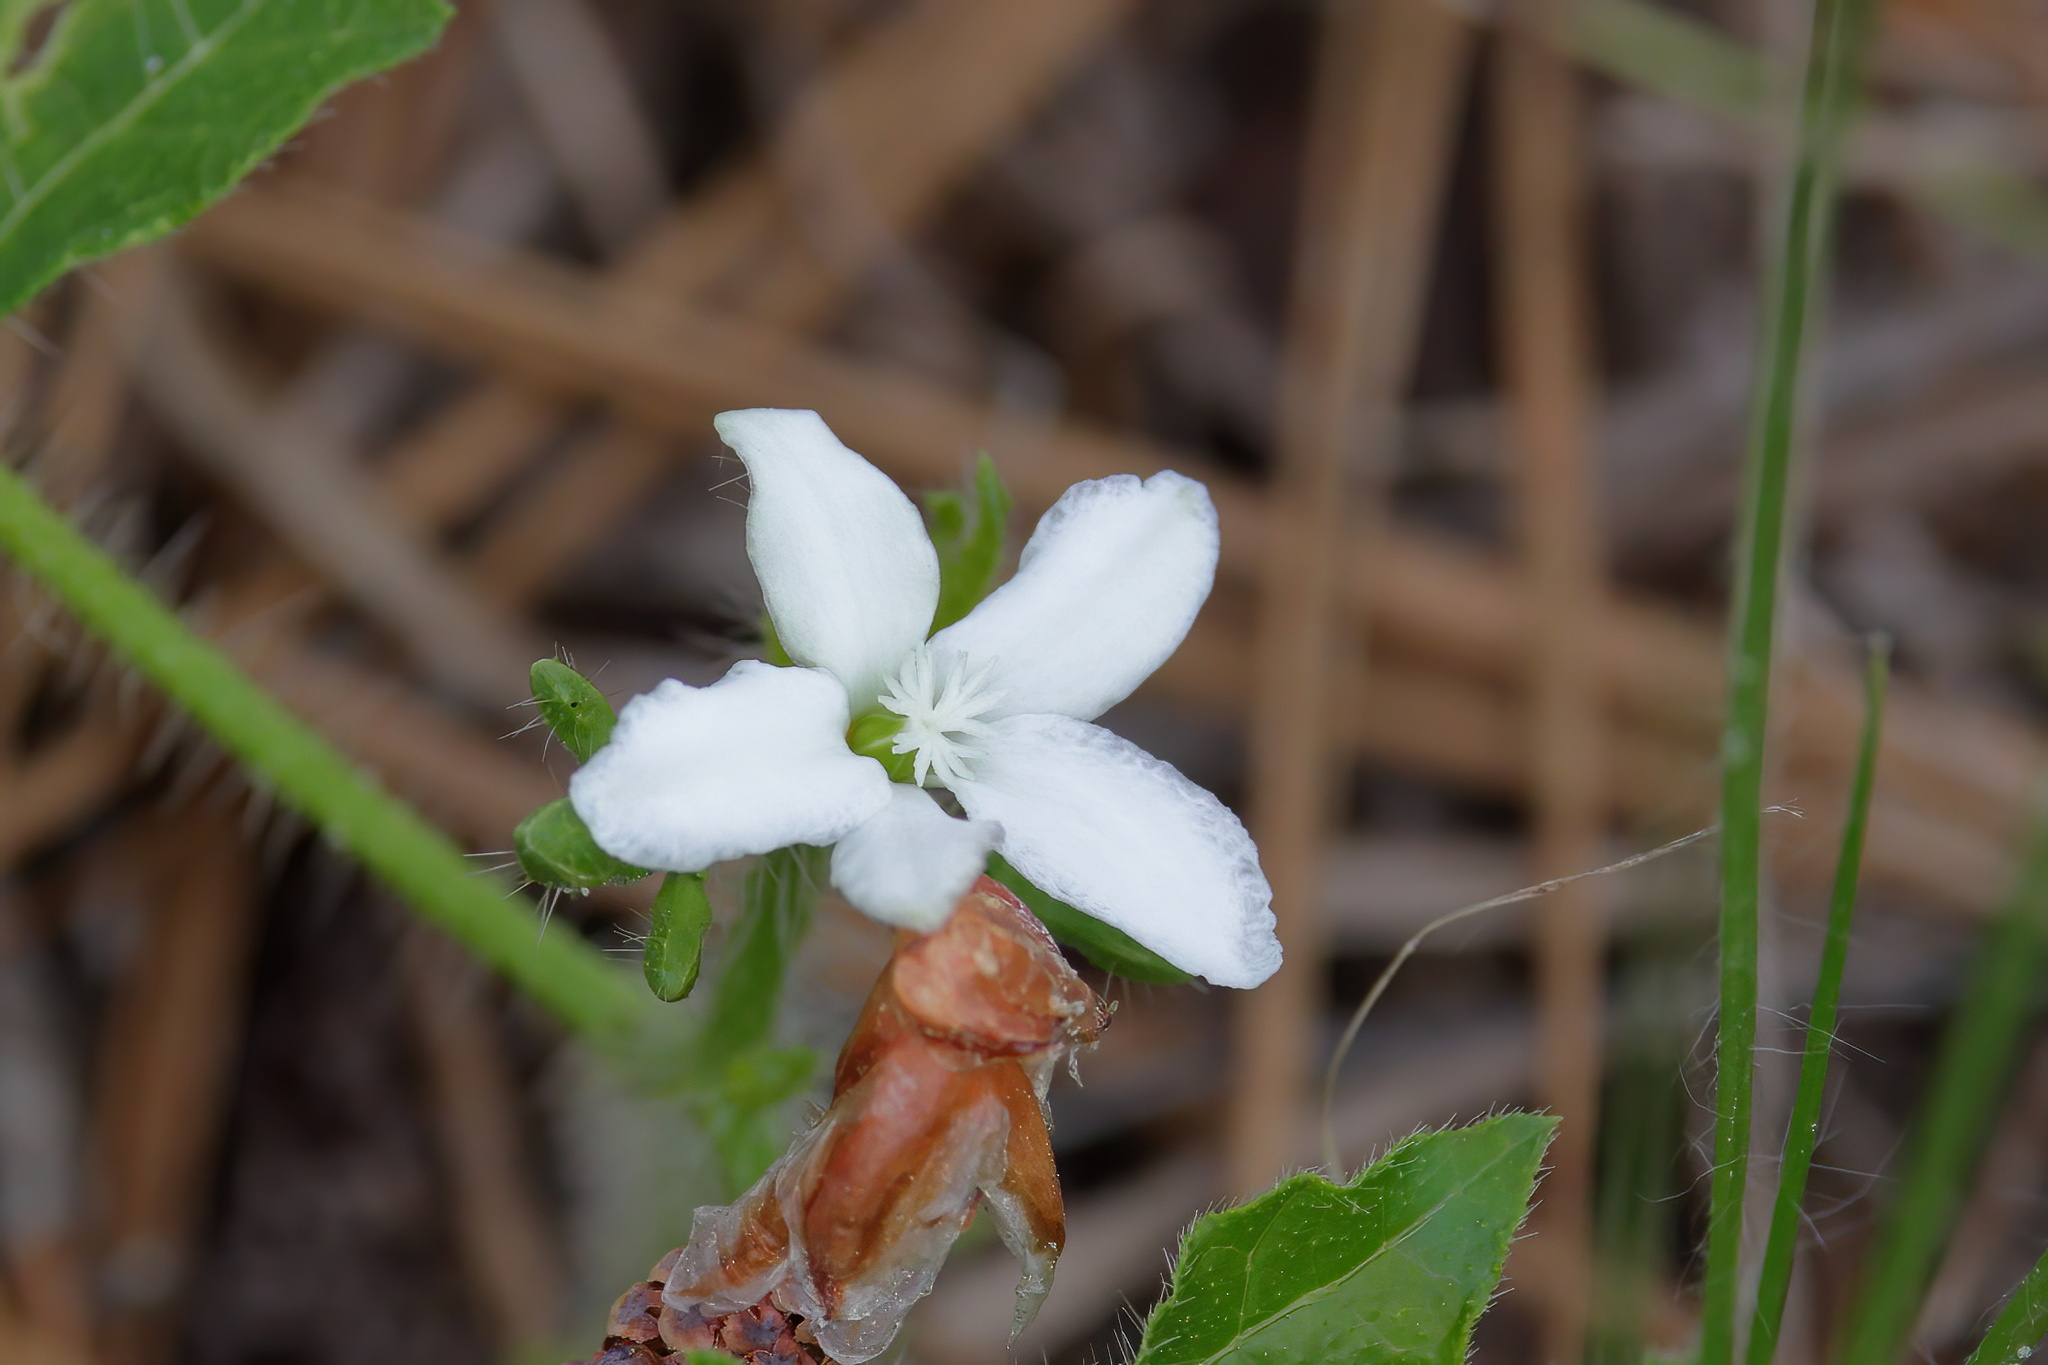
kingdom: Plantae
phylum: Tracheophyta
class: Magnoliopsida
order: Malpighiales
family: Euphorbiaceae
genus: Cnidoscolus
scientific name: Cnidoscolus stimulosus
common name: Bull-nettle
